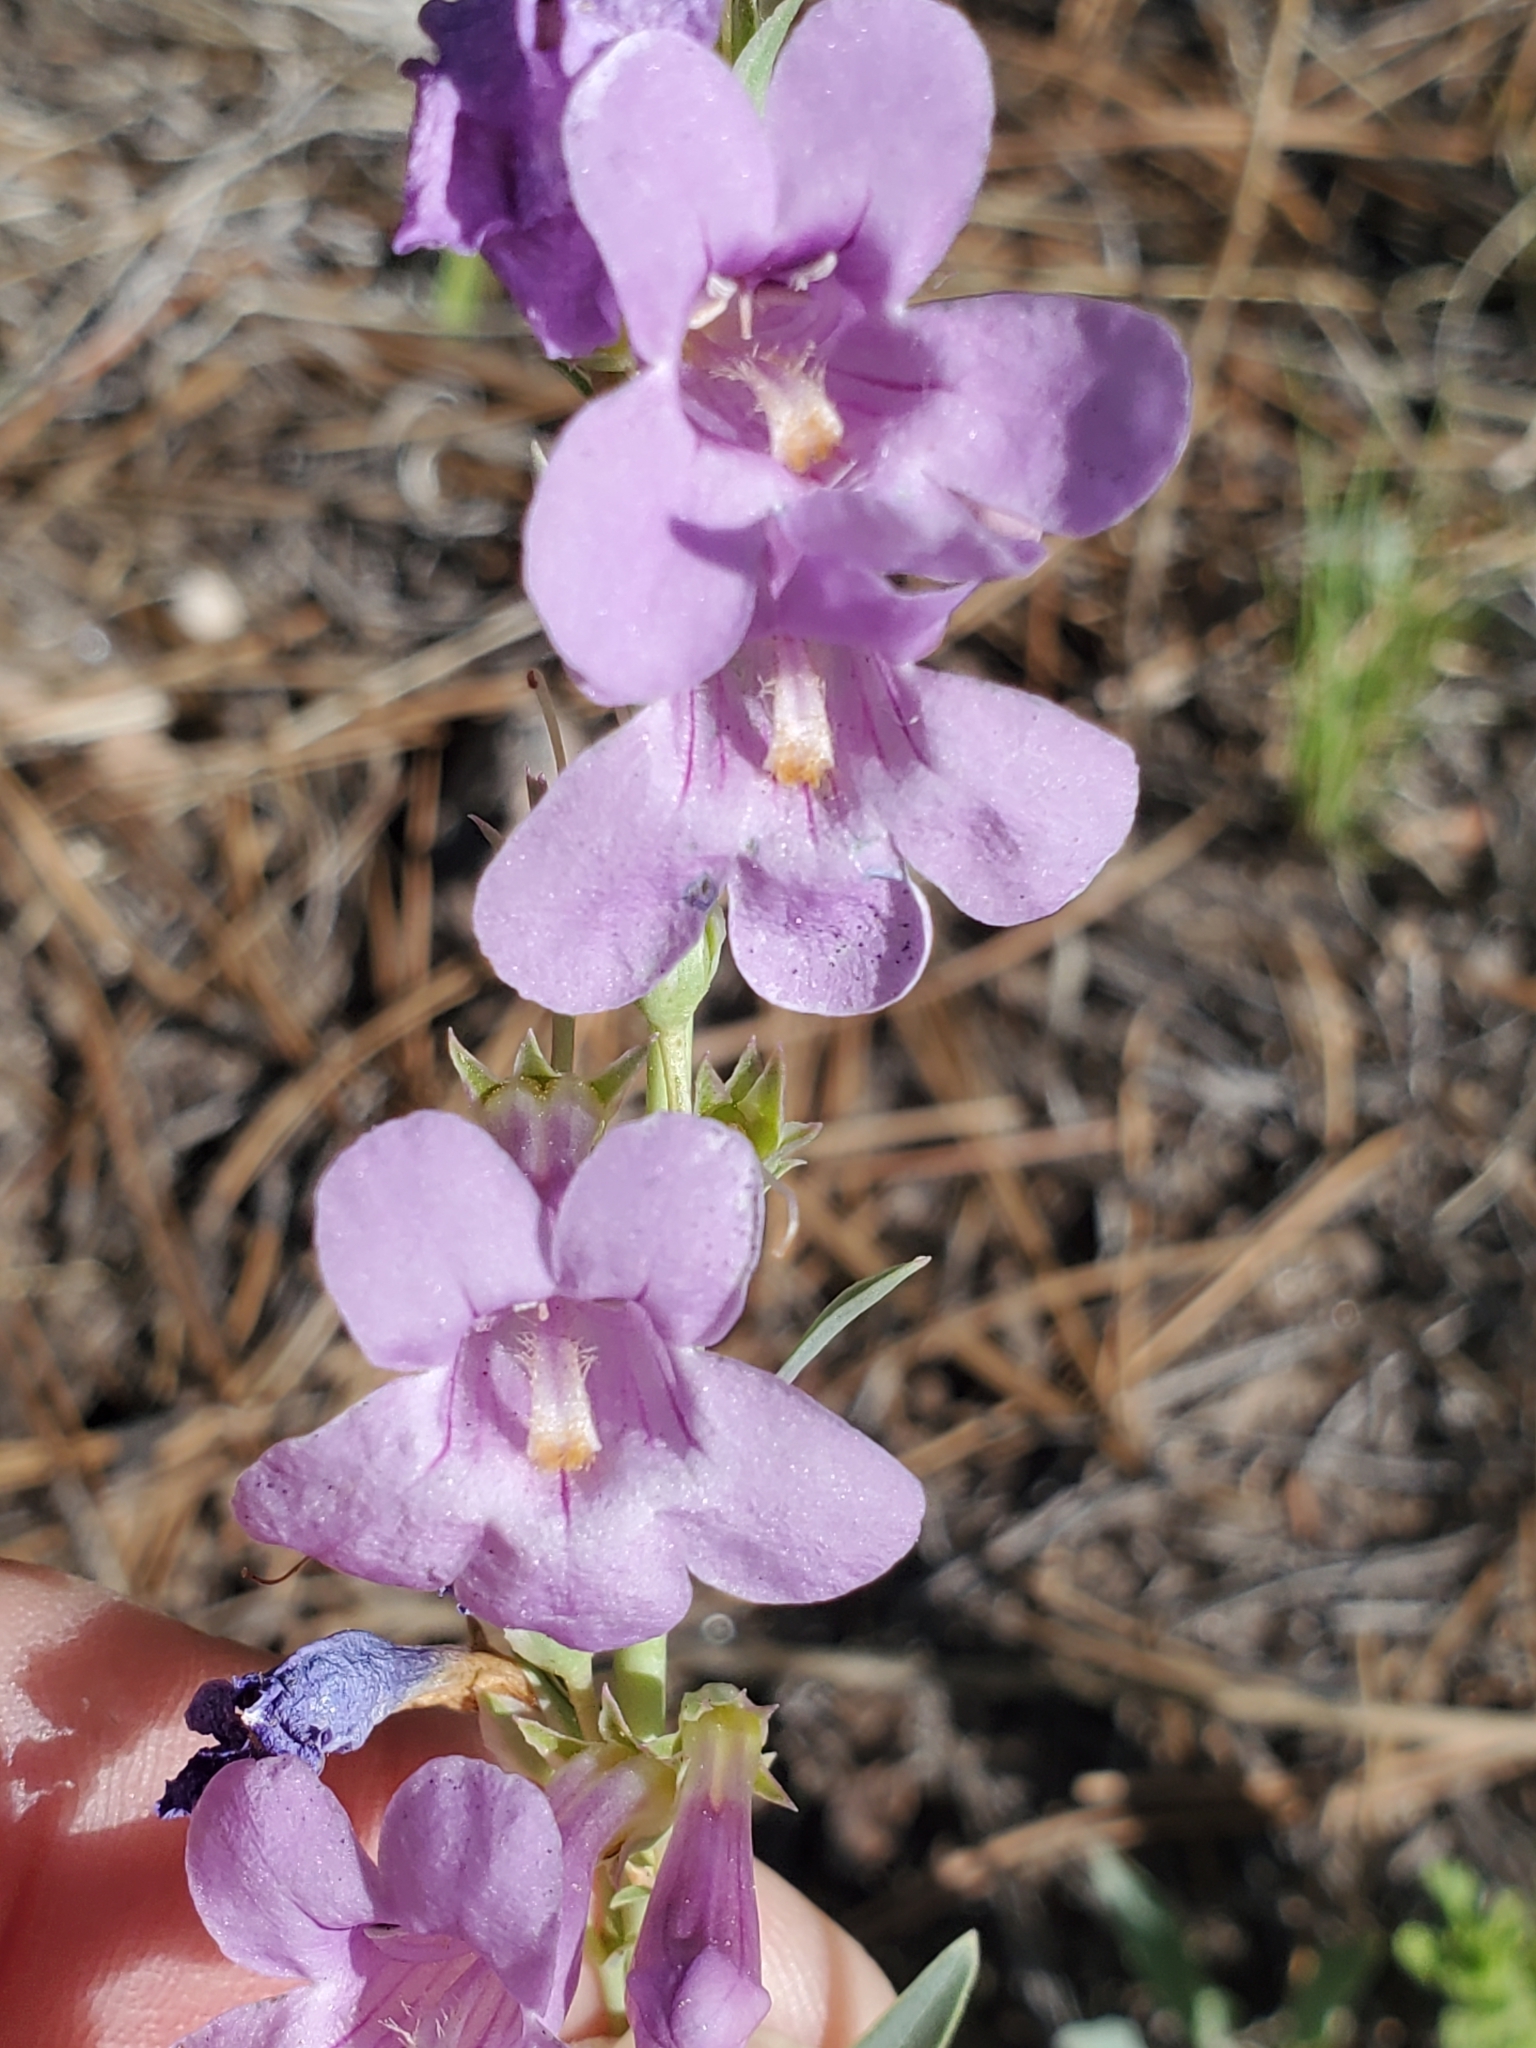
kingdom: Plantae
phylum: Tracheophyta
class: Magnoliopsida
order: Lamiales
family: Plantaginaceae
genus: Penstemon
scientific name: Penstemon secundiflorus
